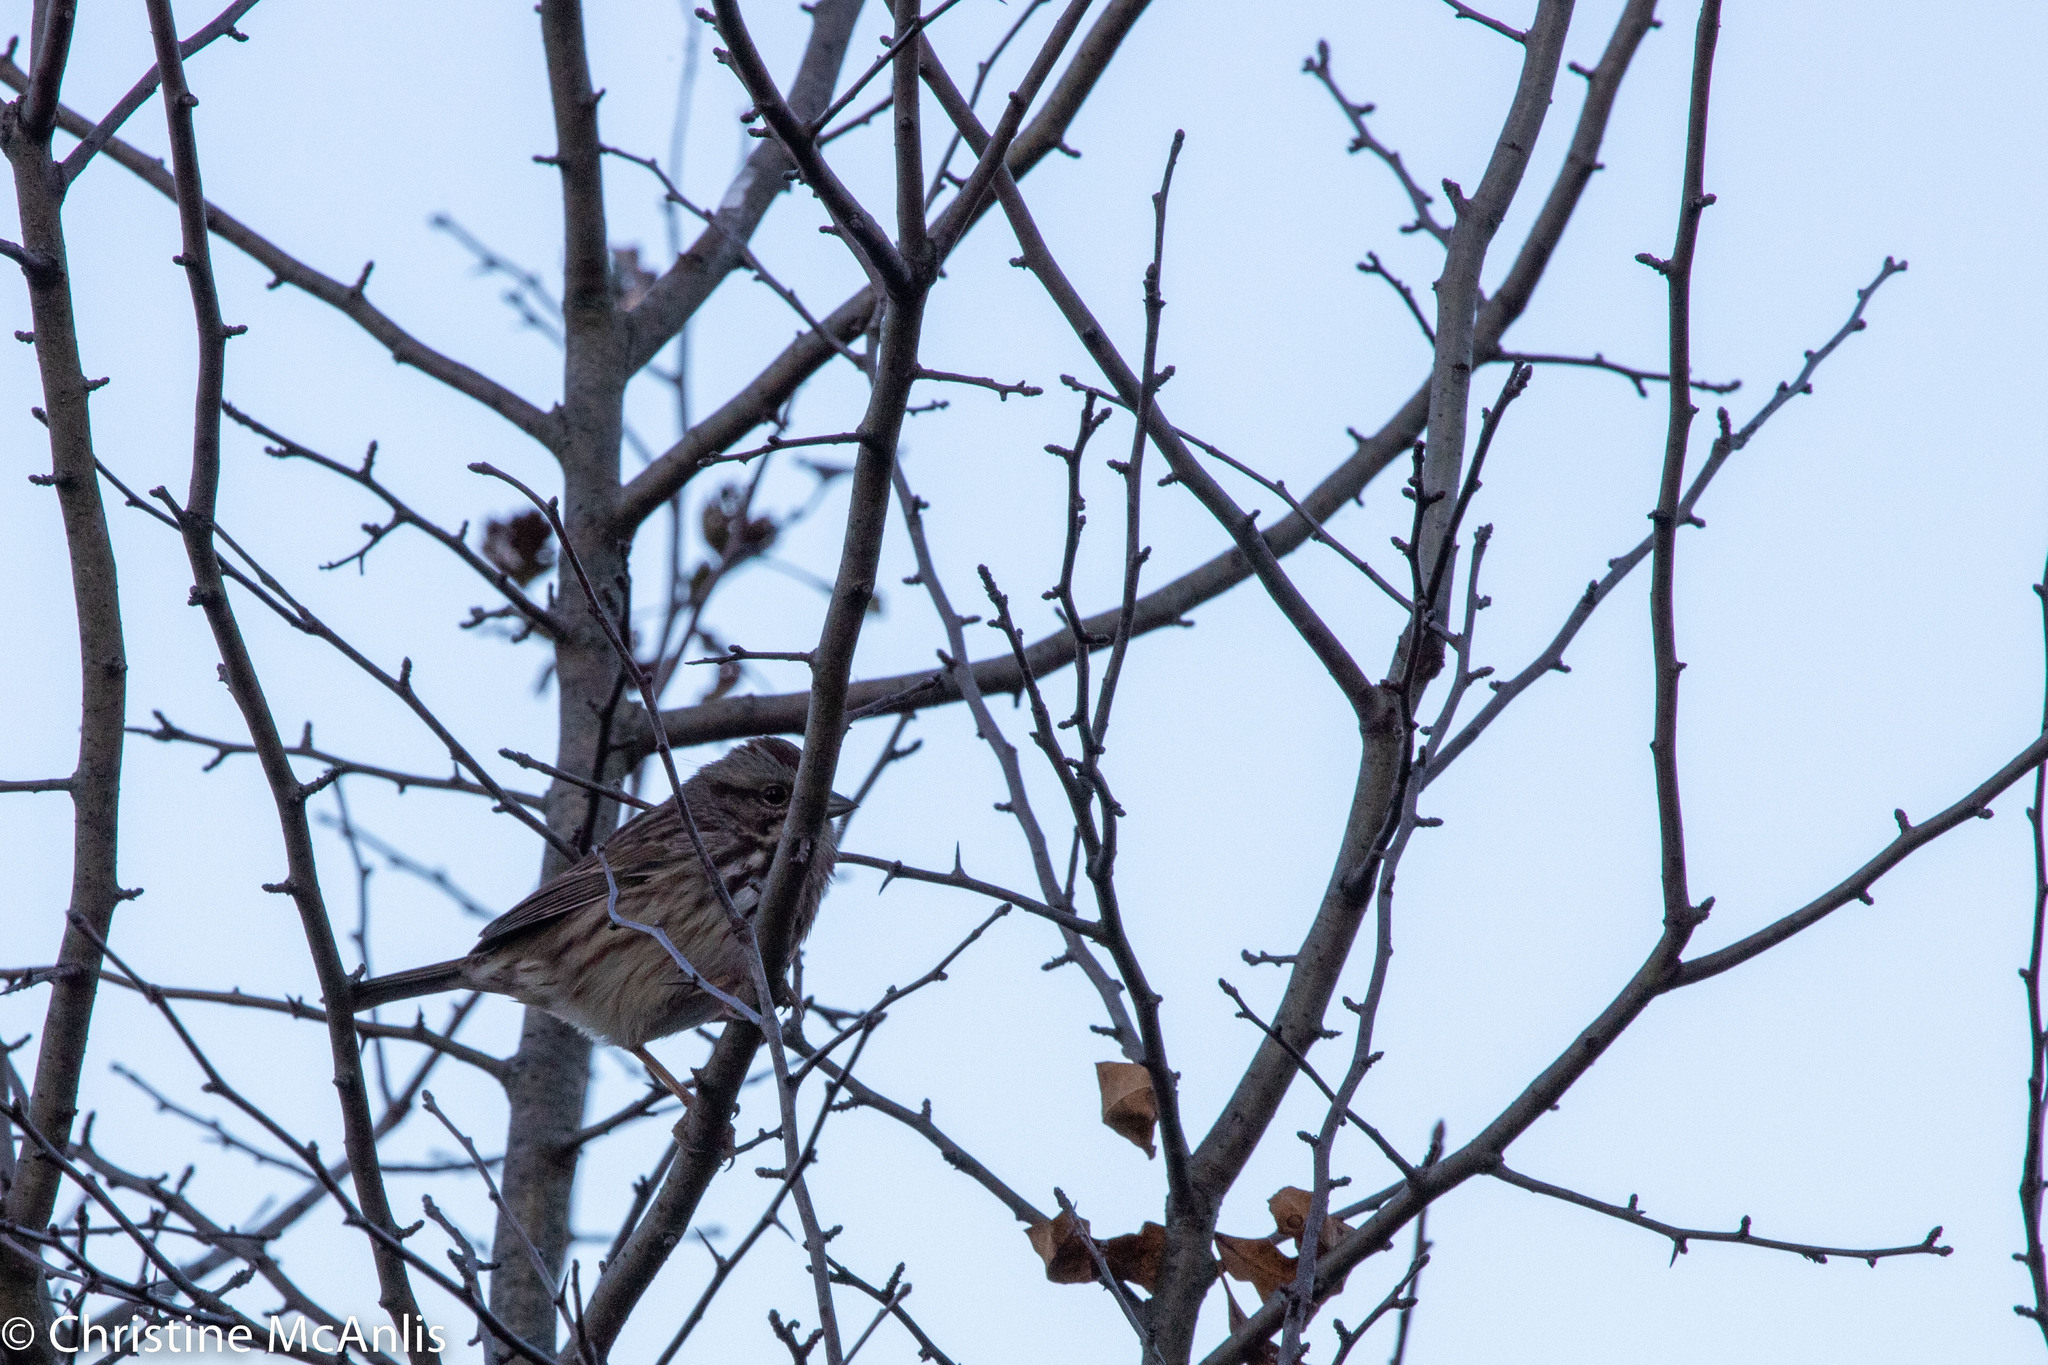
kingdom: Animalia
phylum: Chordata
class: Aves
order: Passeriformes
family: Passerellidae
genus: Melospiza
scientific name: Melospiza melodia
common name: Song sparrow
